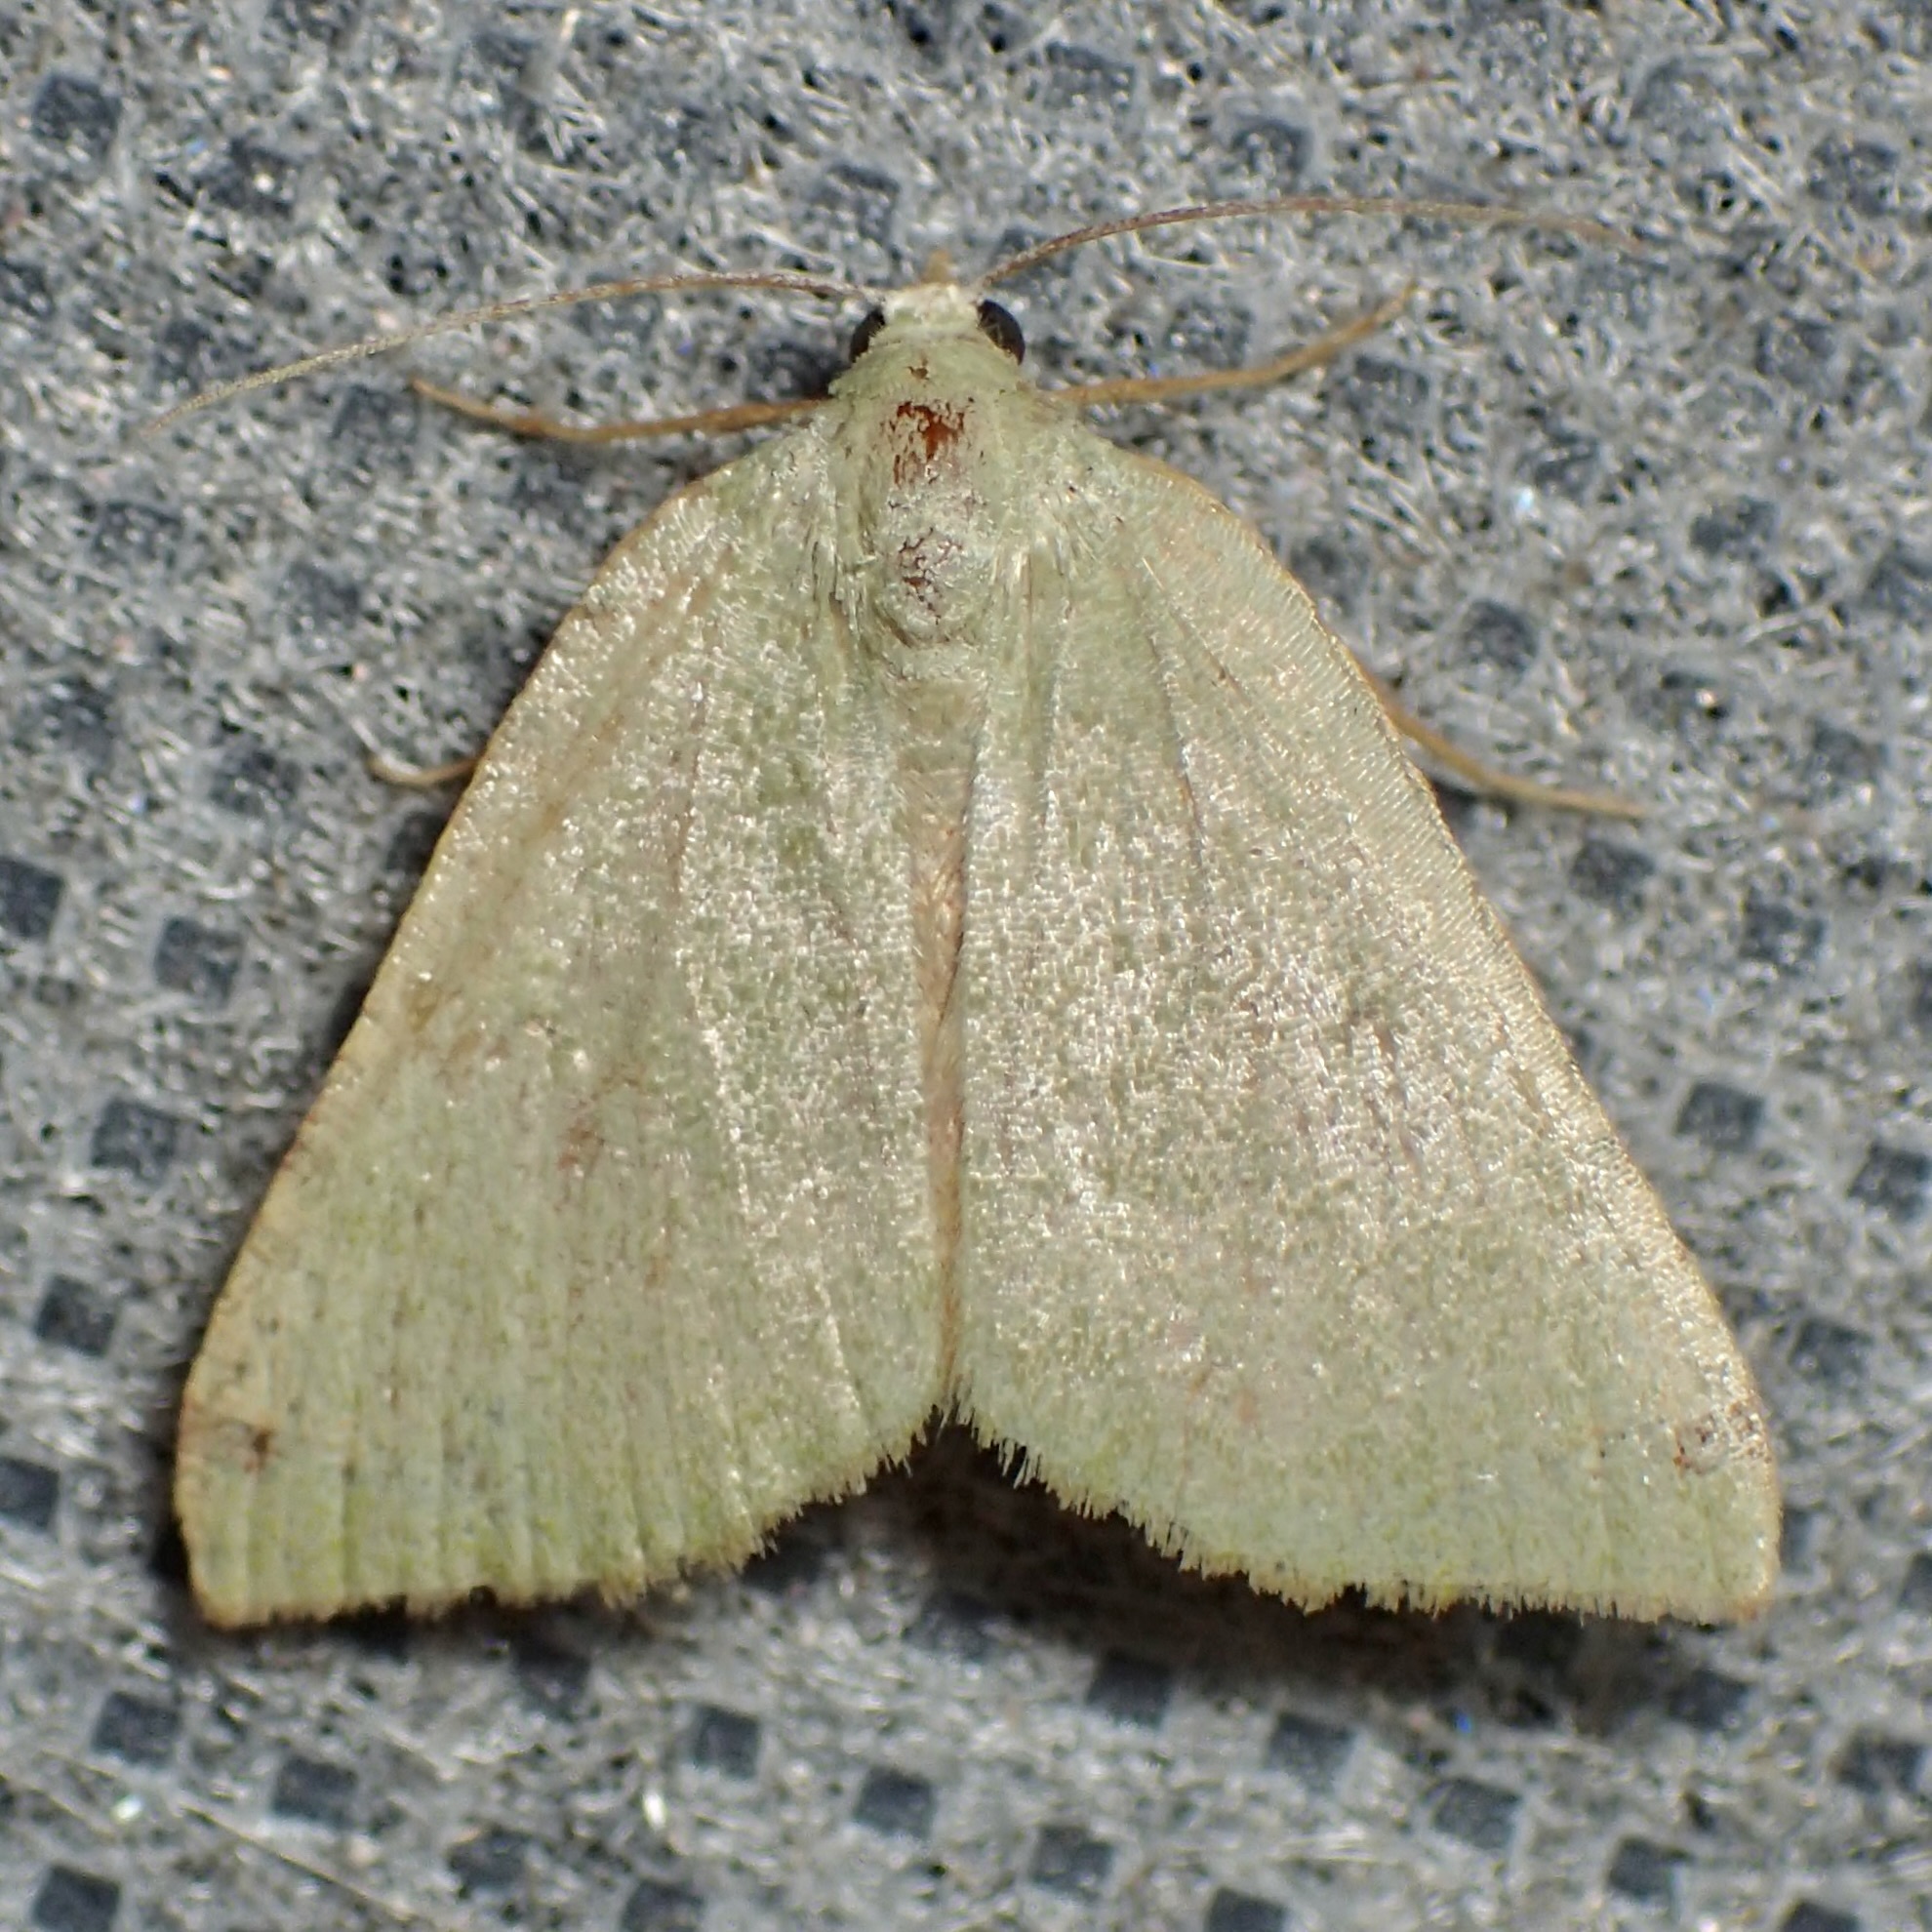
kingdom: Animalia
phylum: Arthropoda
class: Insecta
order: Lepidoptera
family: Geometridae
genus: Chloraspilates
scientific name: Chloraspilates bicoloraria
